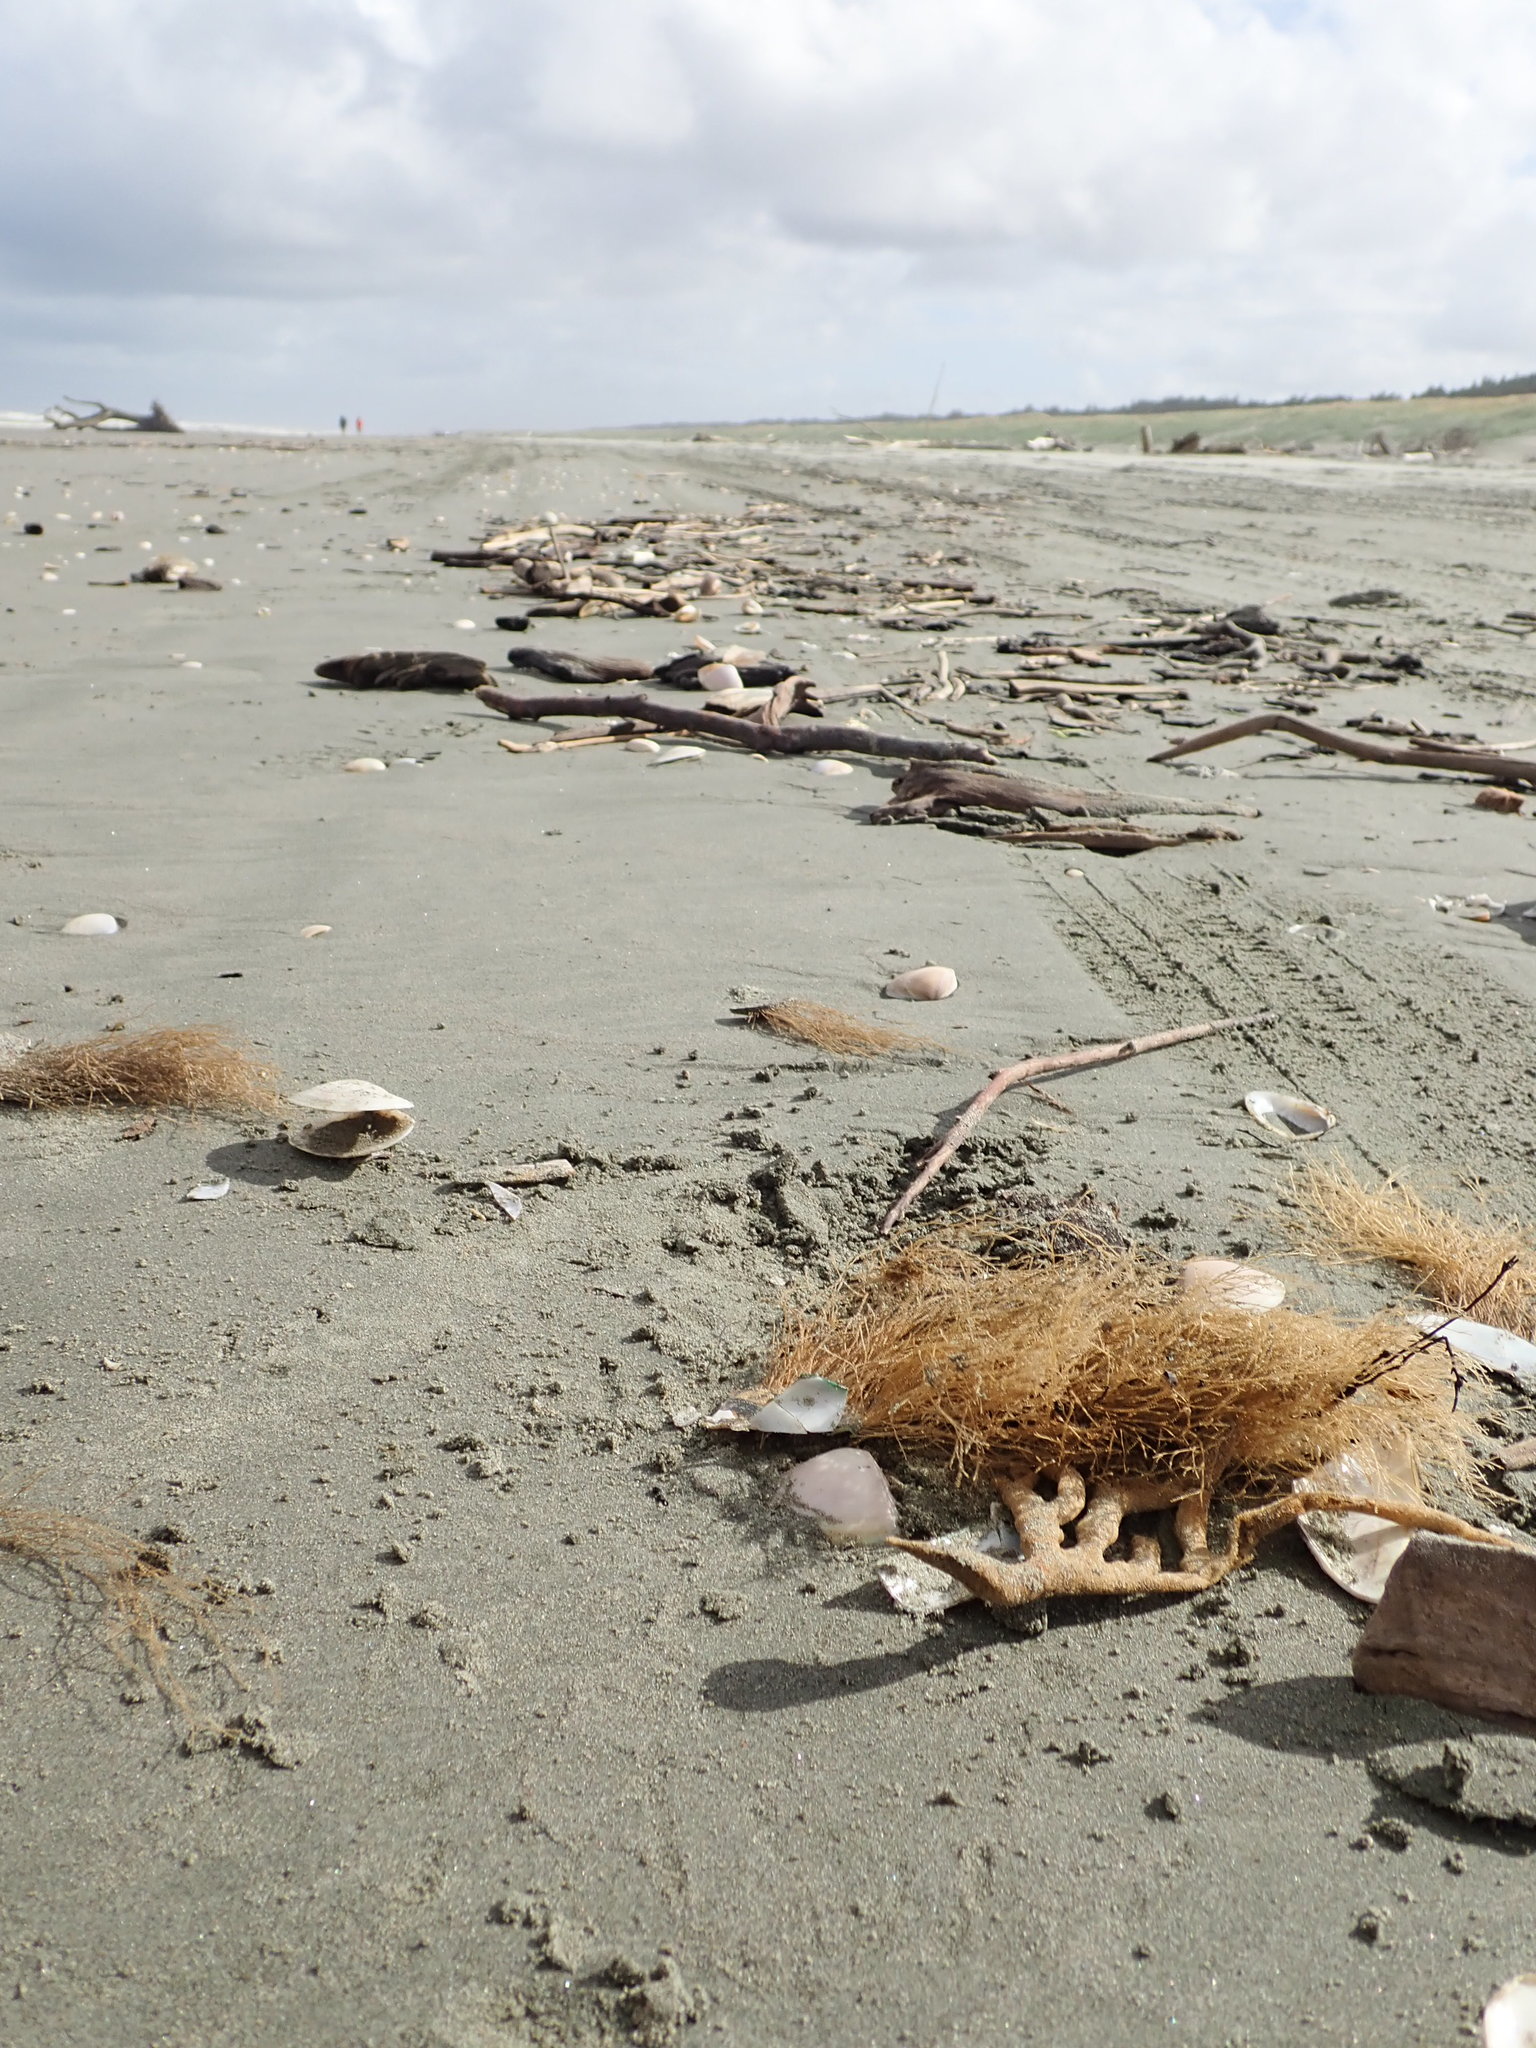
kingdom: Animalia
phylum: Cnidaria
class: Hydrozoa
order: Leptothecata
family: Sertulariidae
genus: Amphisbetia
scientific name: Amphisbetia bispinosa
